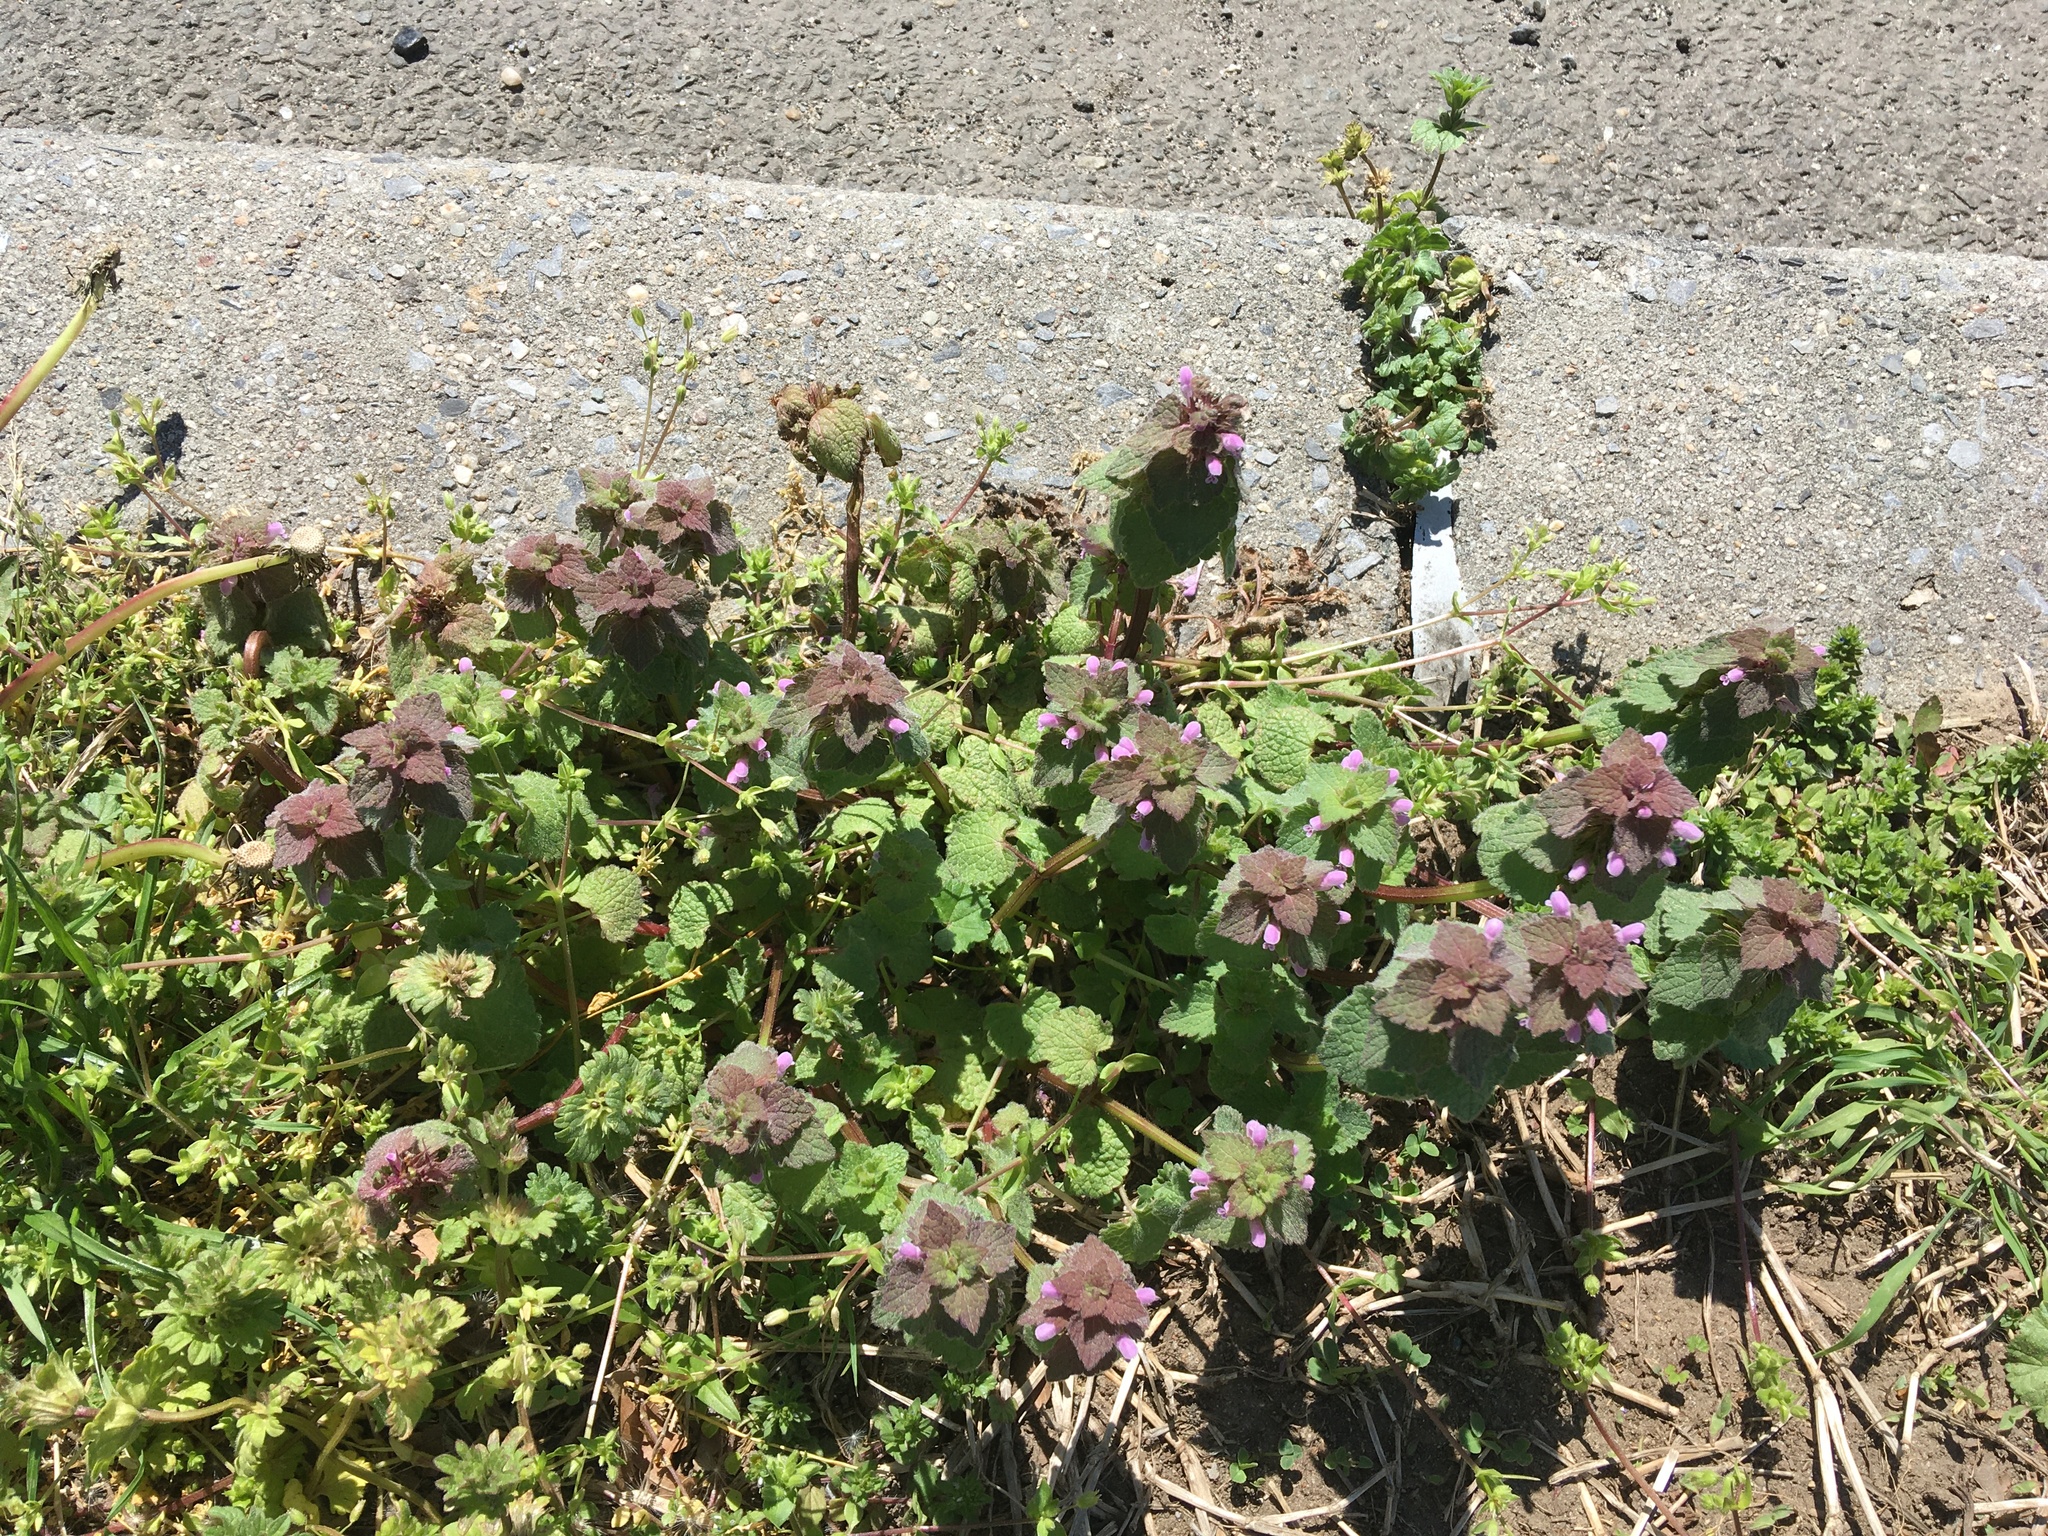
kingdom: Plantae
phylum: Tracheophyta
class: Magnoliopsida
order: Lamiales
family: Lamiaceae
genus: Lamium
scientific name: Lamium purpureum
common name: Red dead-nettle
